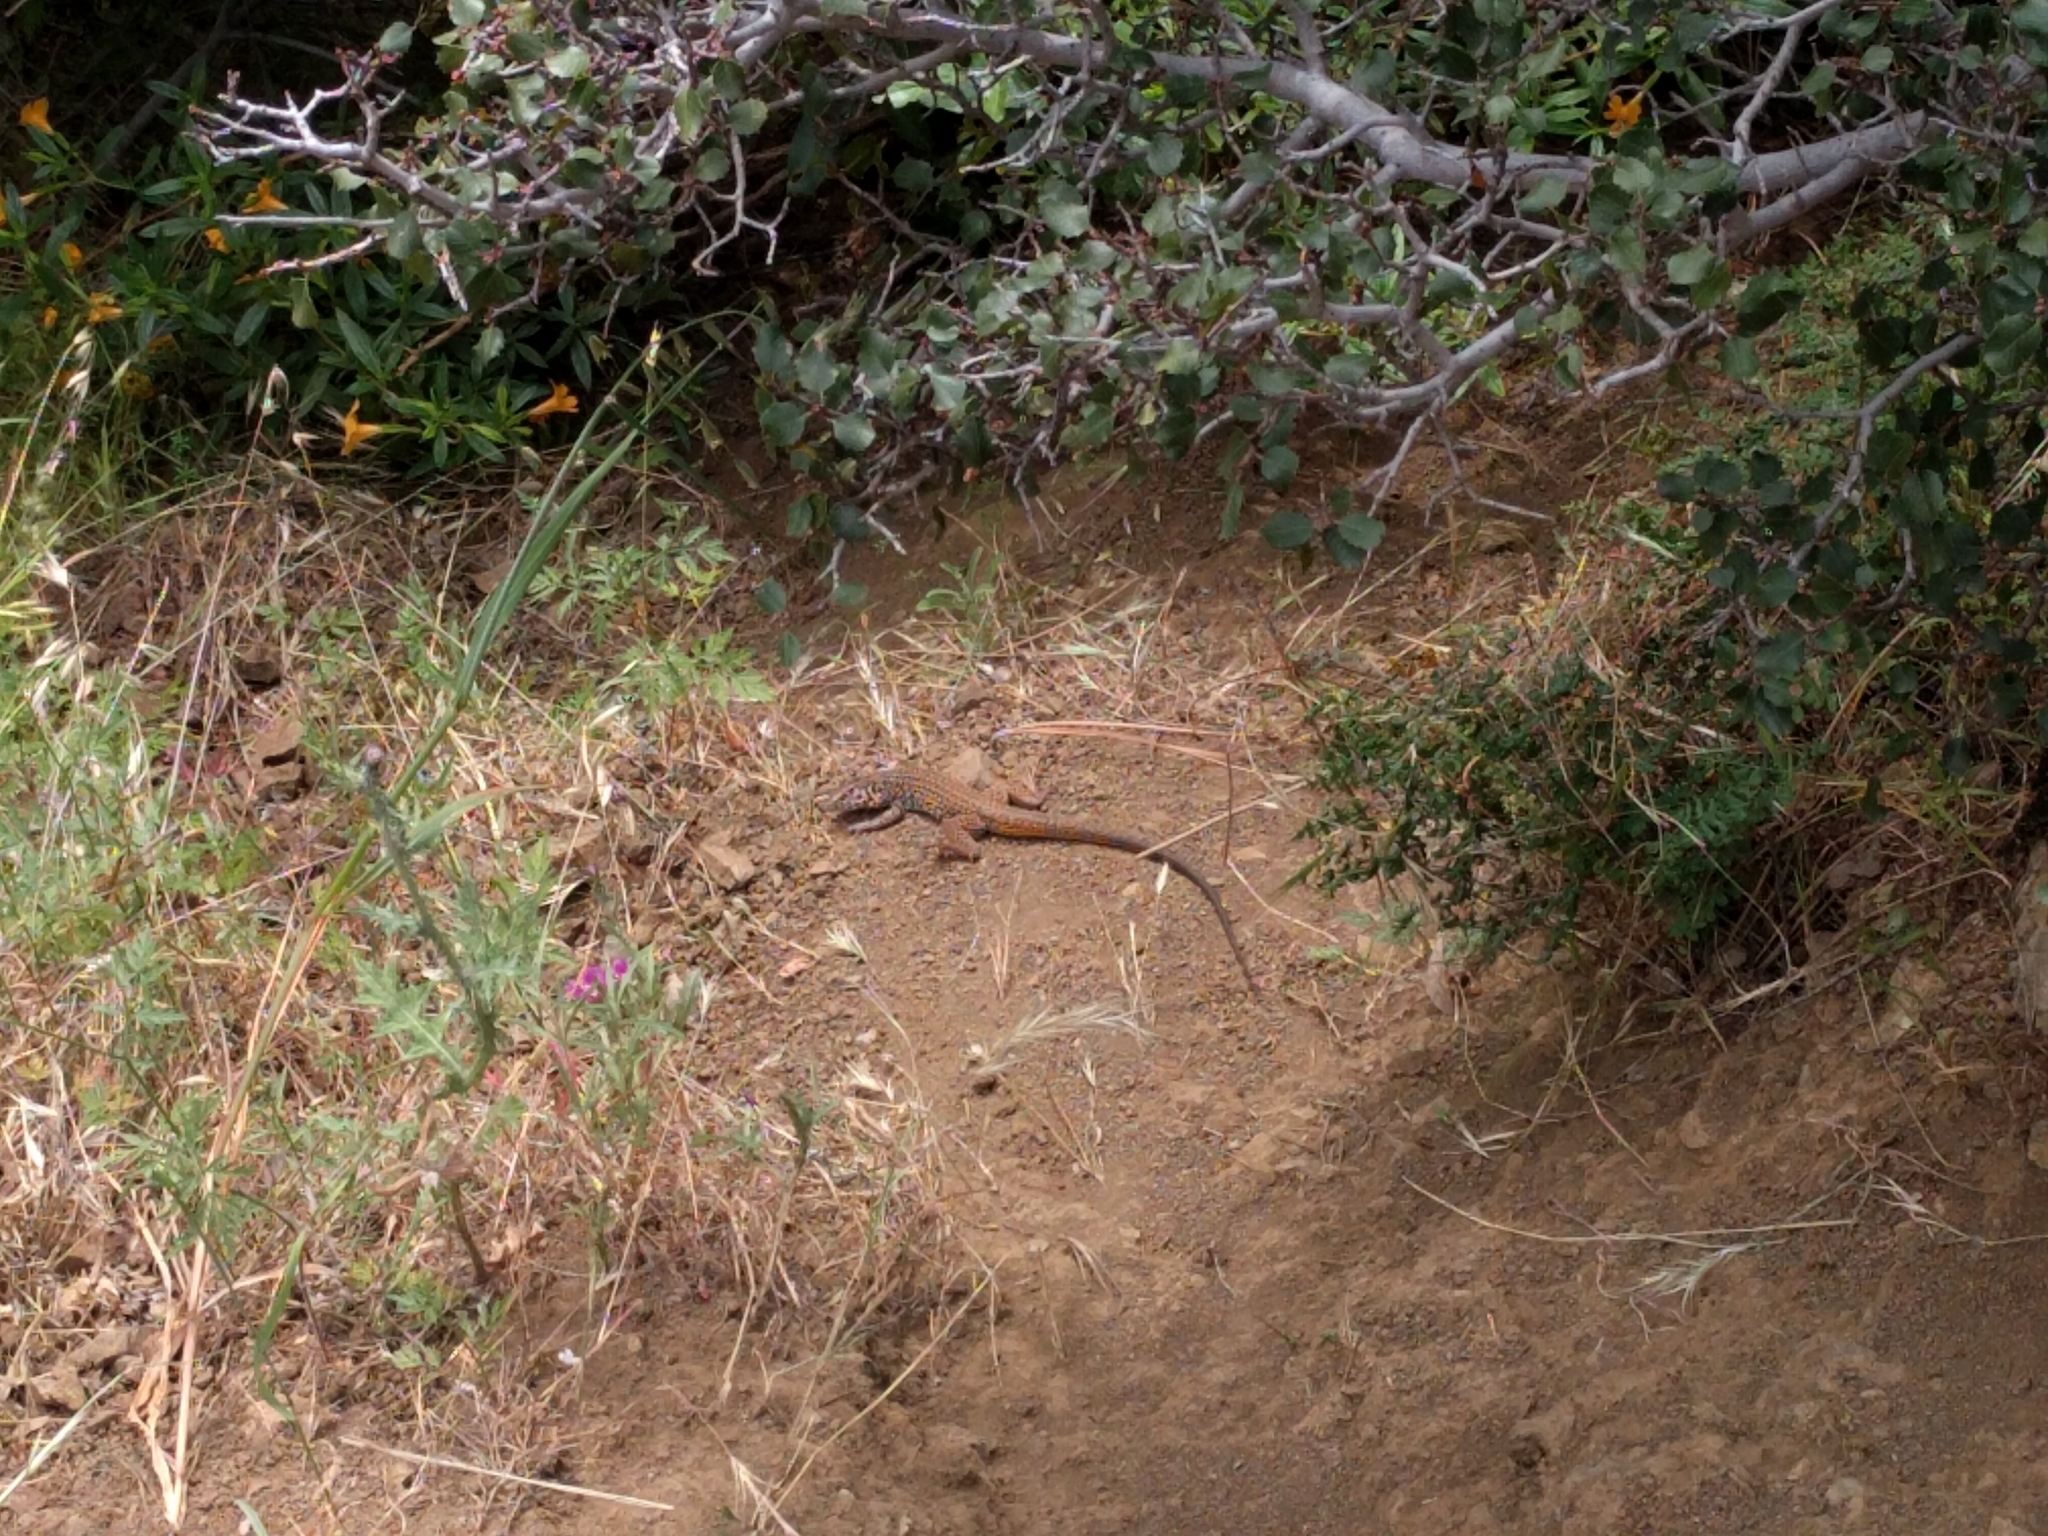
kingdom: Animalia
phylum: Chordata
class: Squamata
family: Teiidae
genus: Aspidoscelis
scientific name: Aspidoscelis tigris
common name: Tiger whiptail
